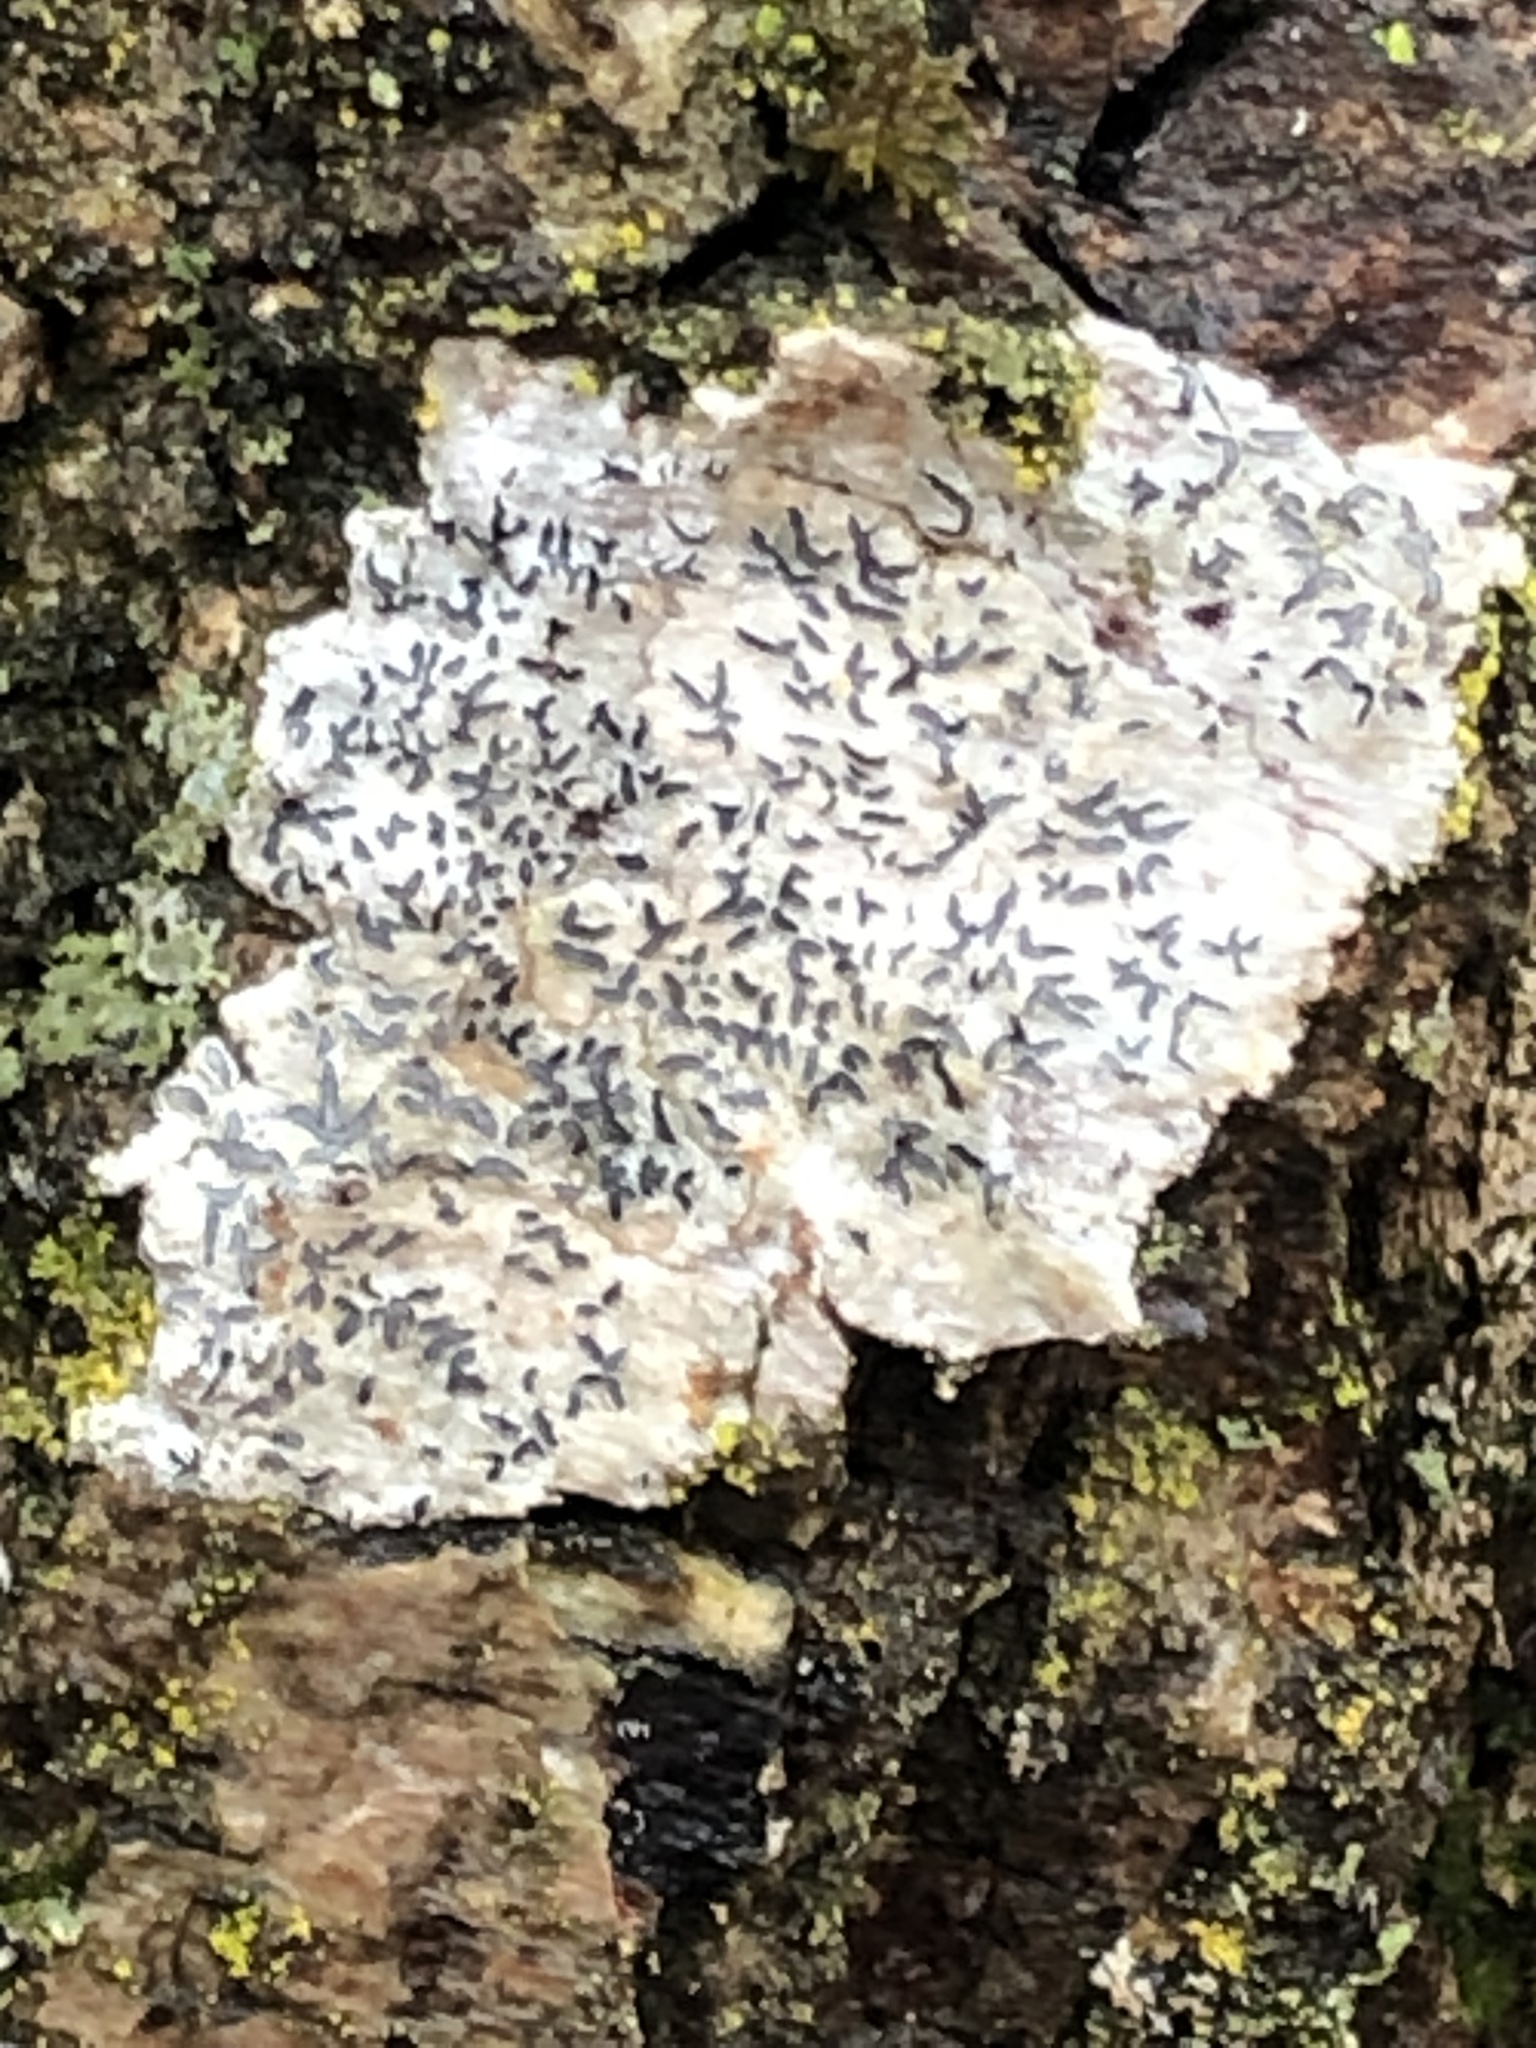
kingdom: Fungi
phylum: Ascomycota
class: Lecanoromycetes
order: Ostropales
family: Graphidaceae
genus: Graphis
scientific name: Graphis scripta
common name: Script lichen
